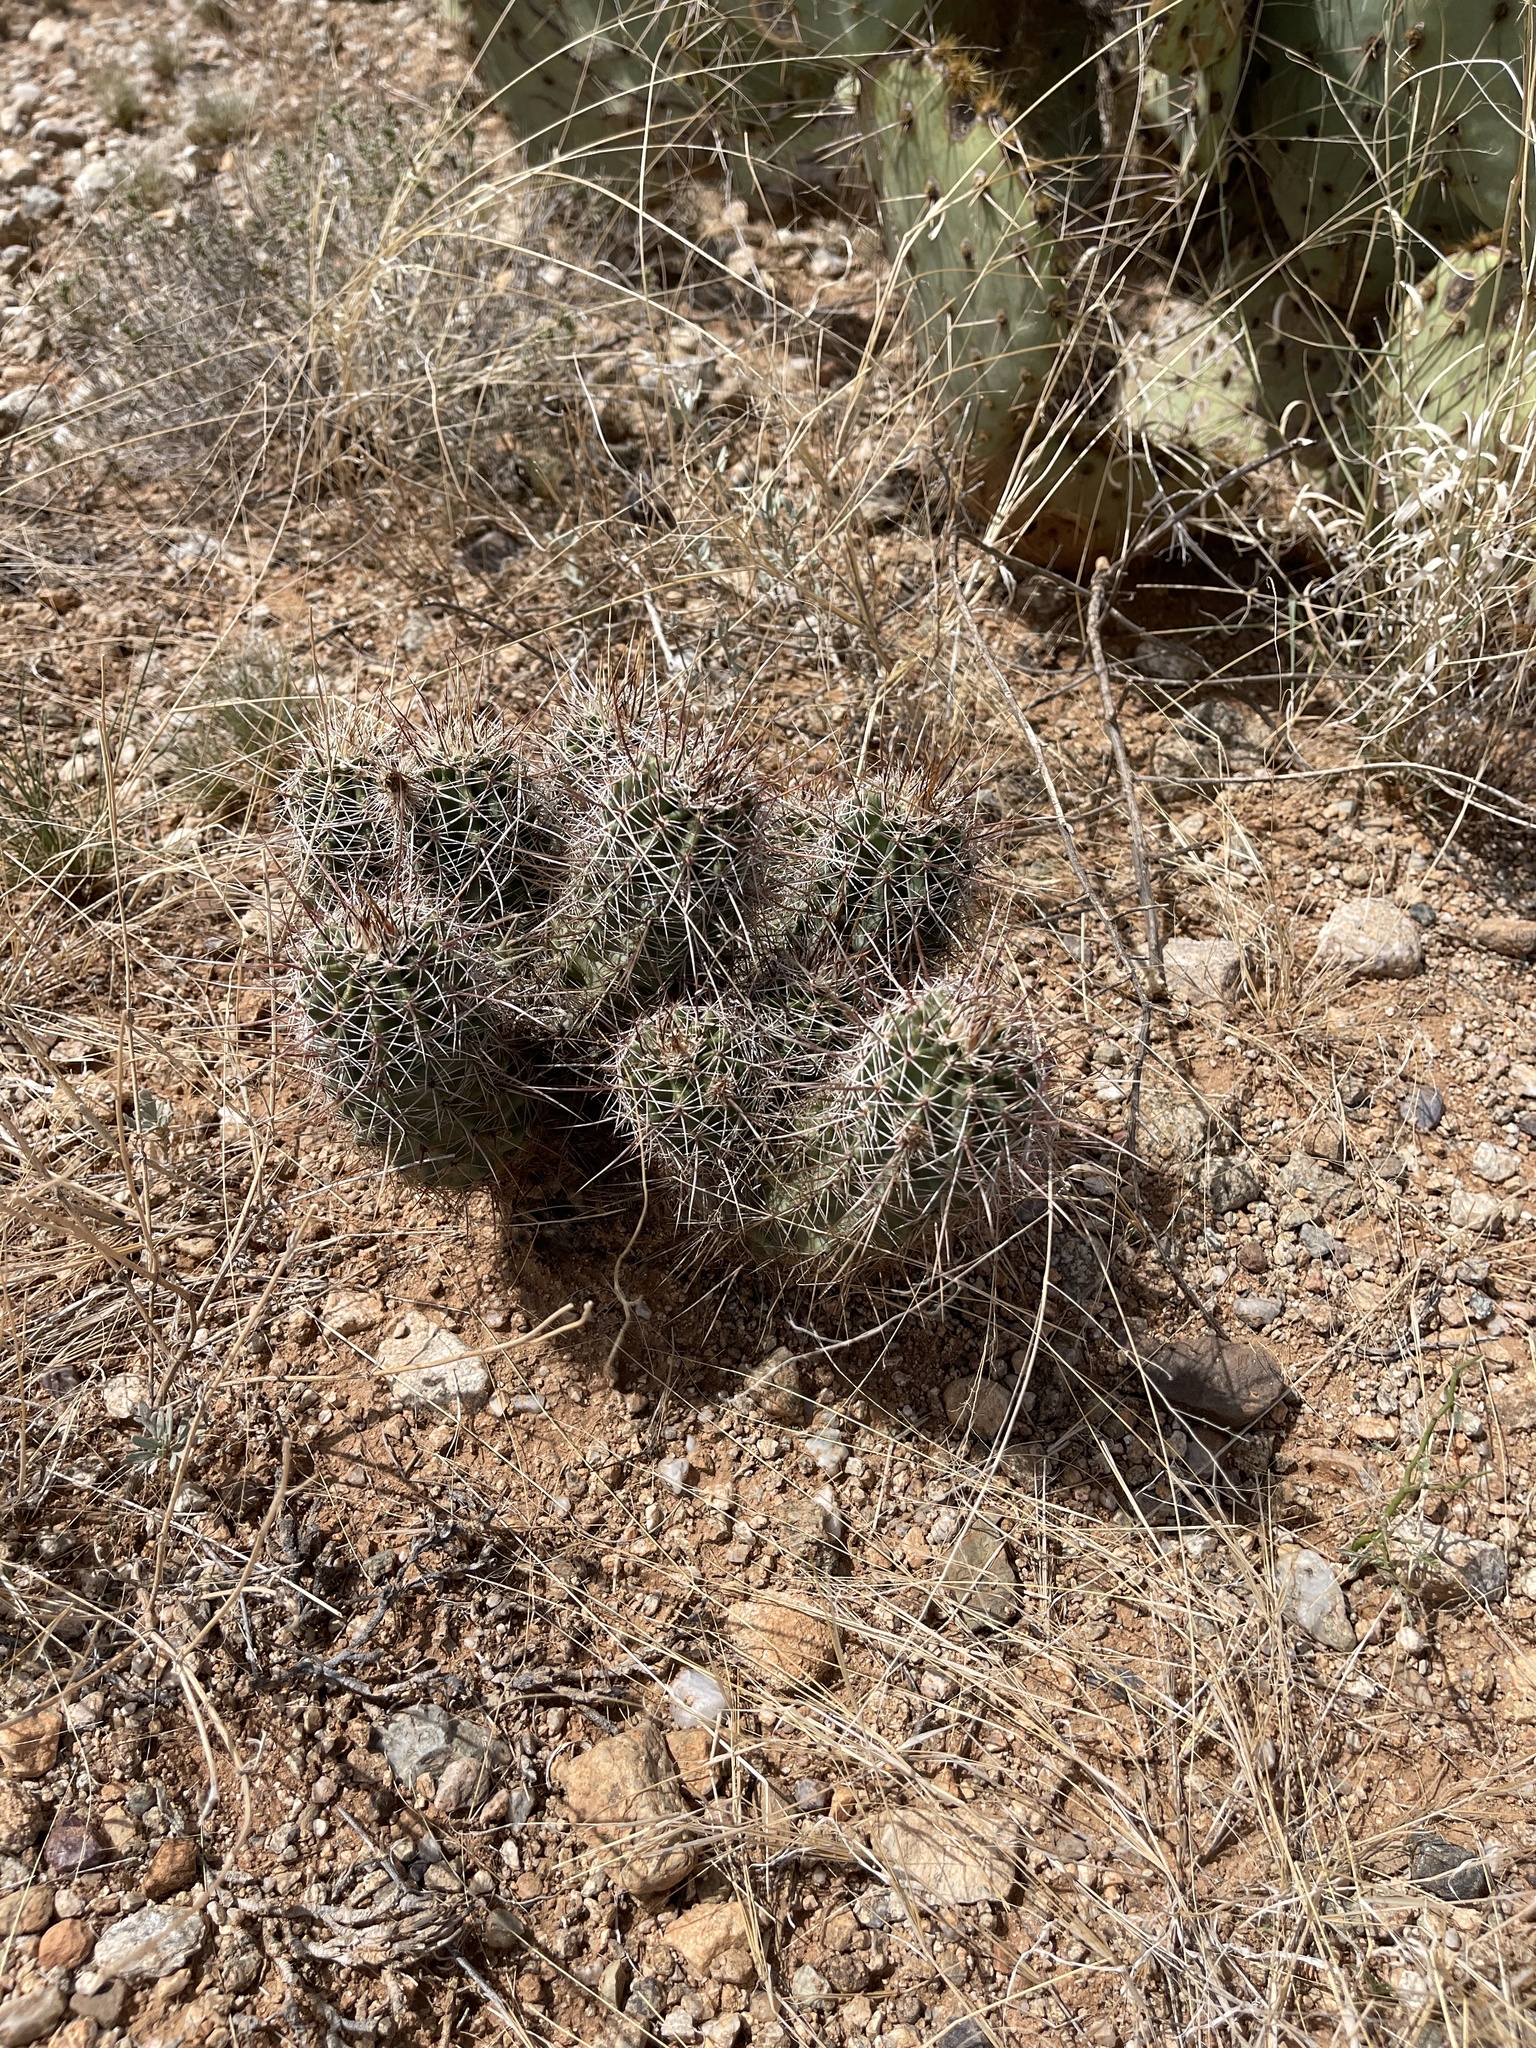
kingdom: Plantae
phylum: Tracheophyta
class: Magnoliopsida
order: Caryophyllales
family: Cactaceae
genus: Echinocereus
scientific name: Echinocereus fasciculatus
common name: Bundle hedgehog
